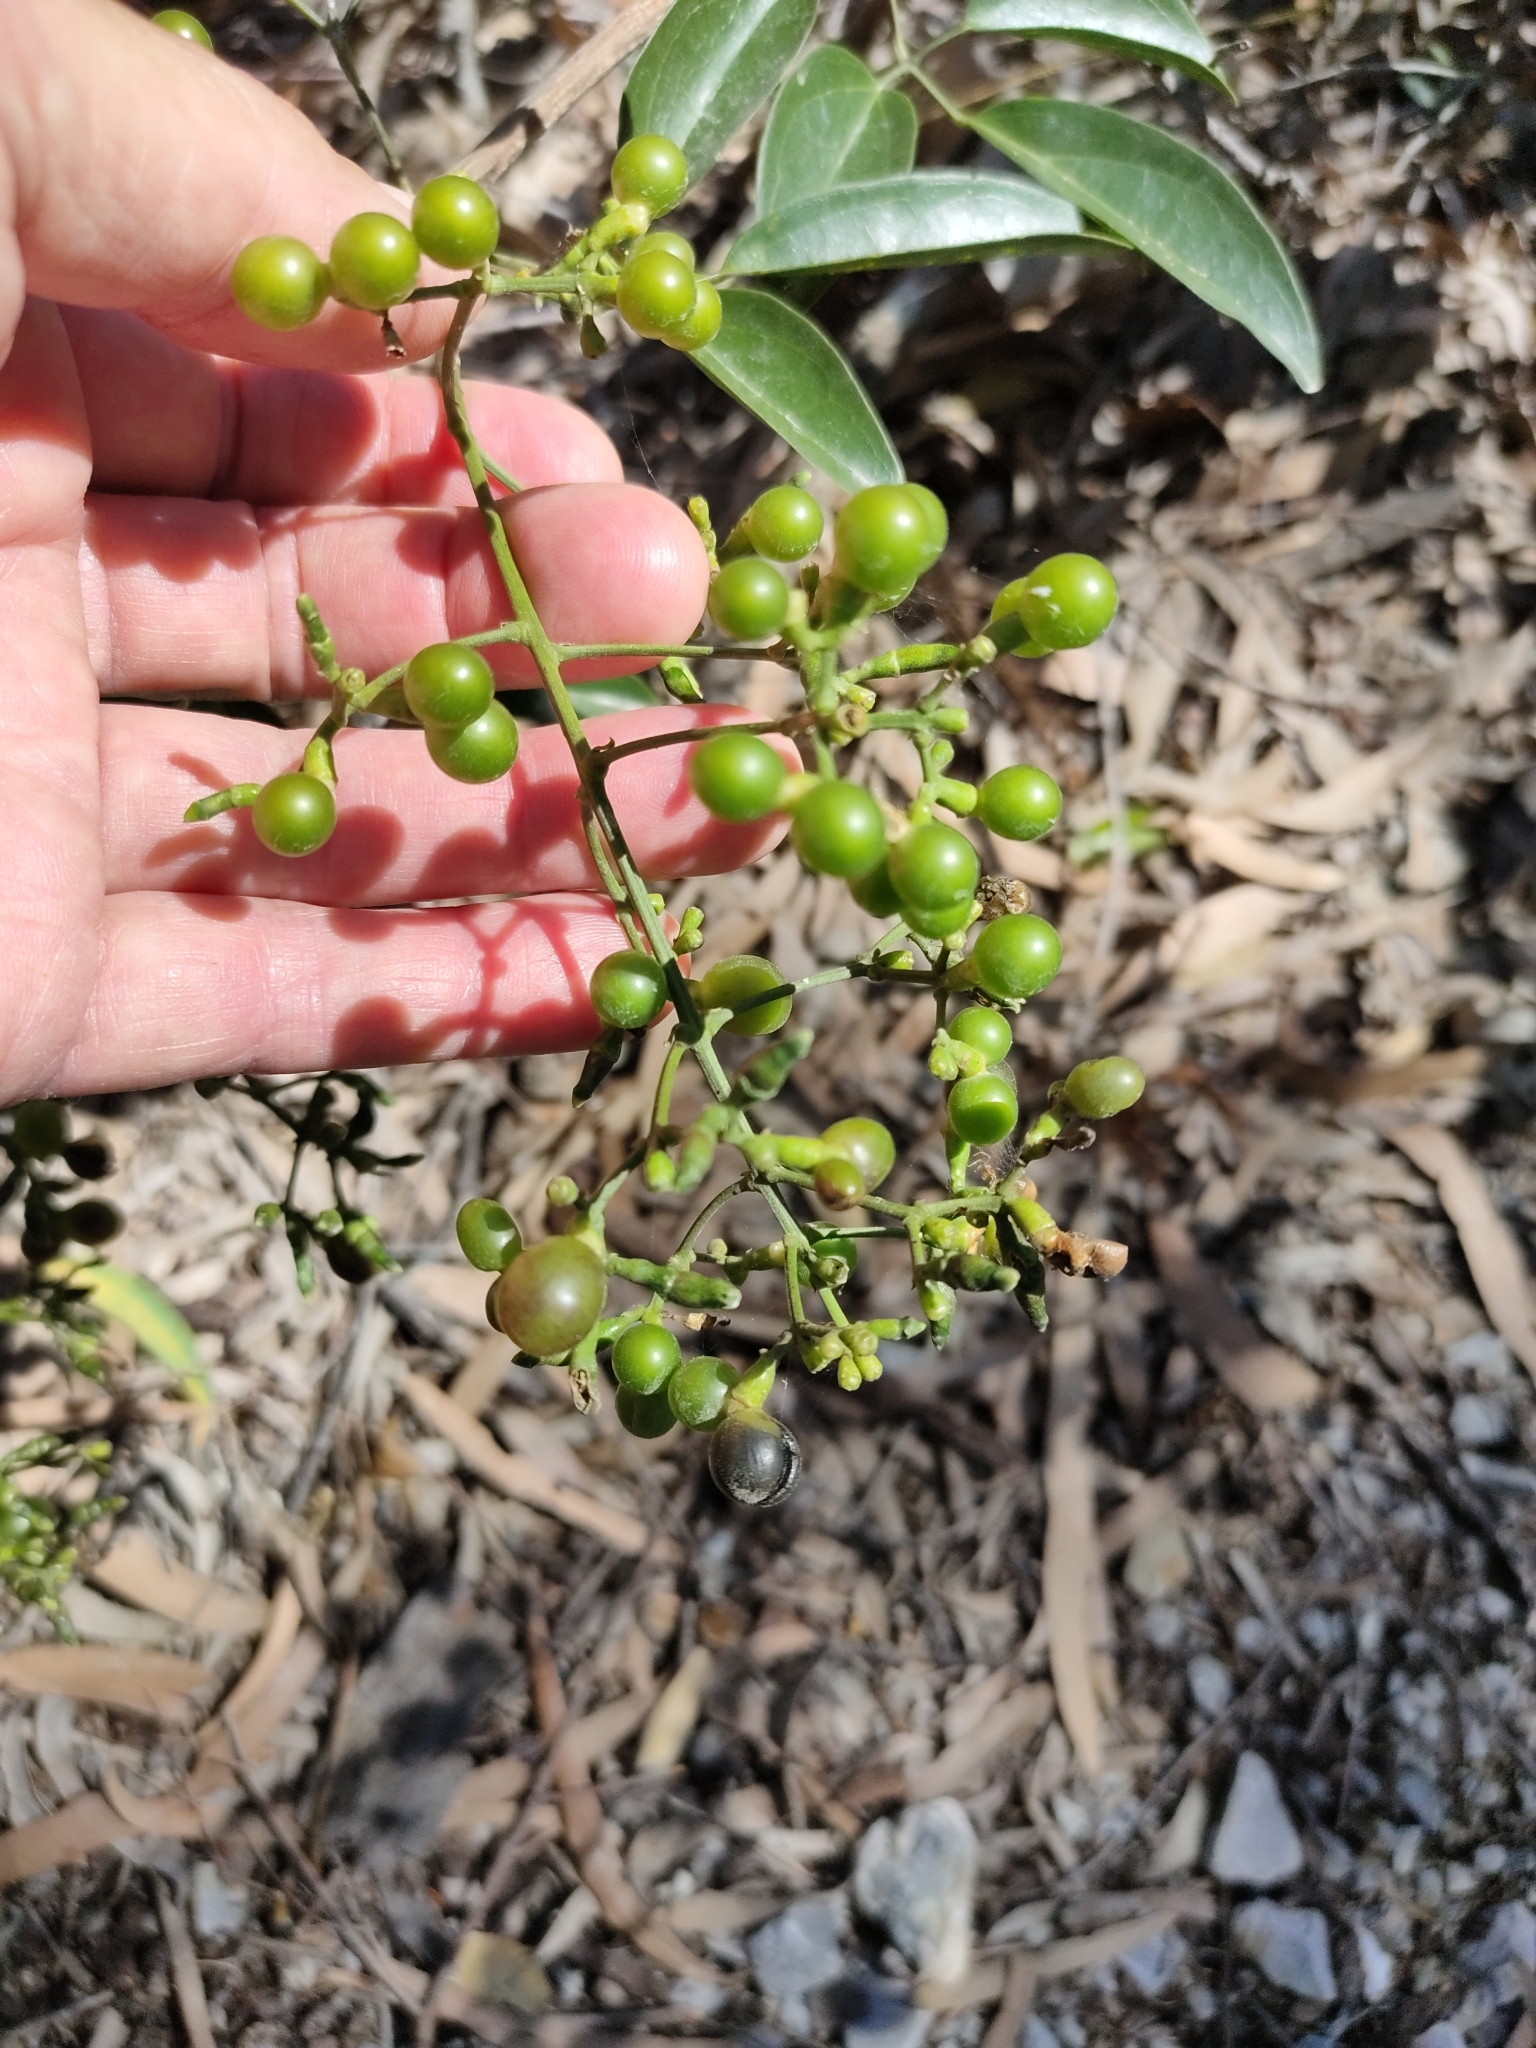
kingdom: Plantae
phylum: Tracheophyta
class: Magnoliopsida
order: Lamiales
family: Oleaceae
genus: Jasminum
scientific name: Jasminum didymum
